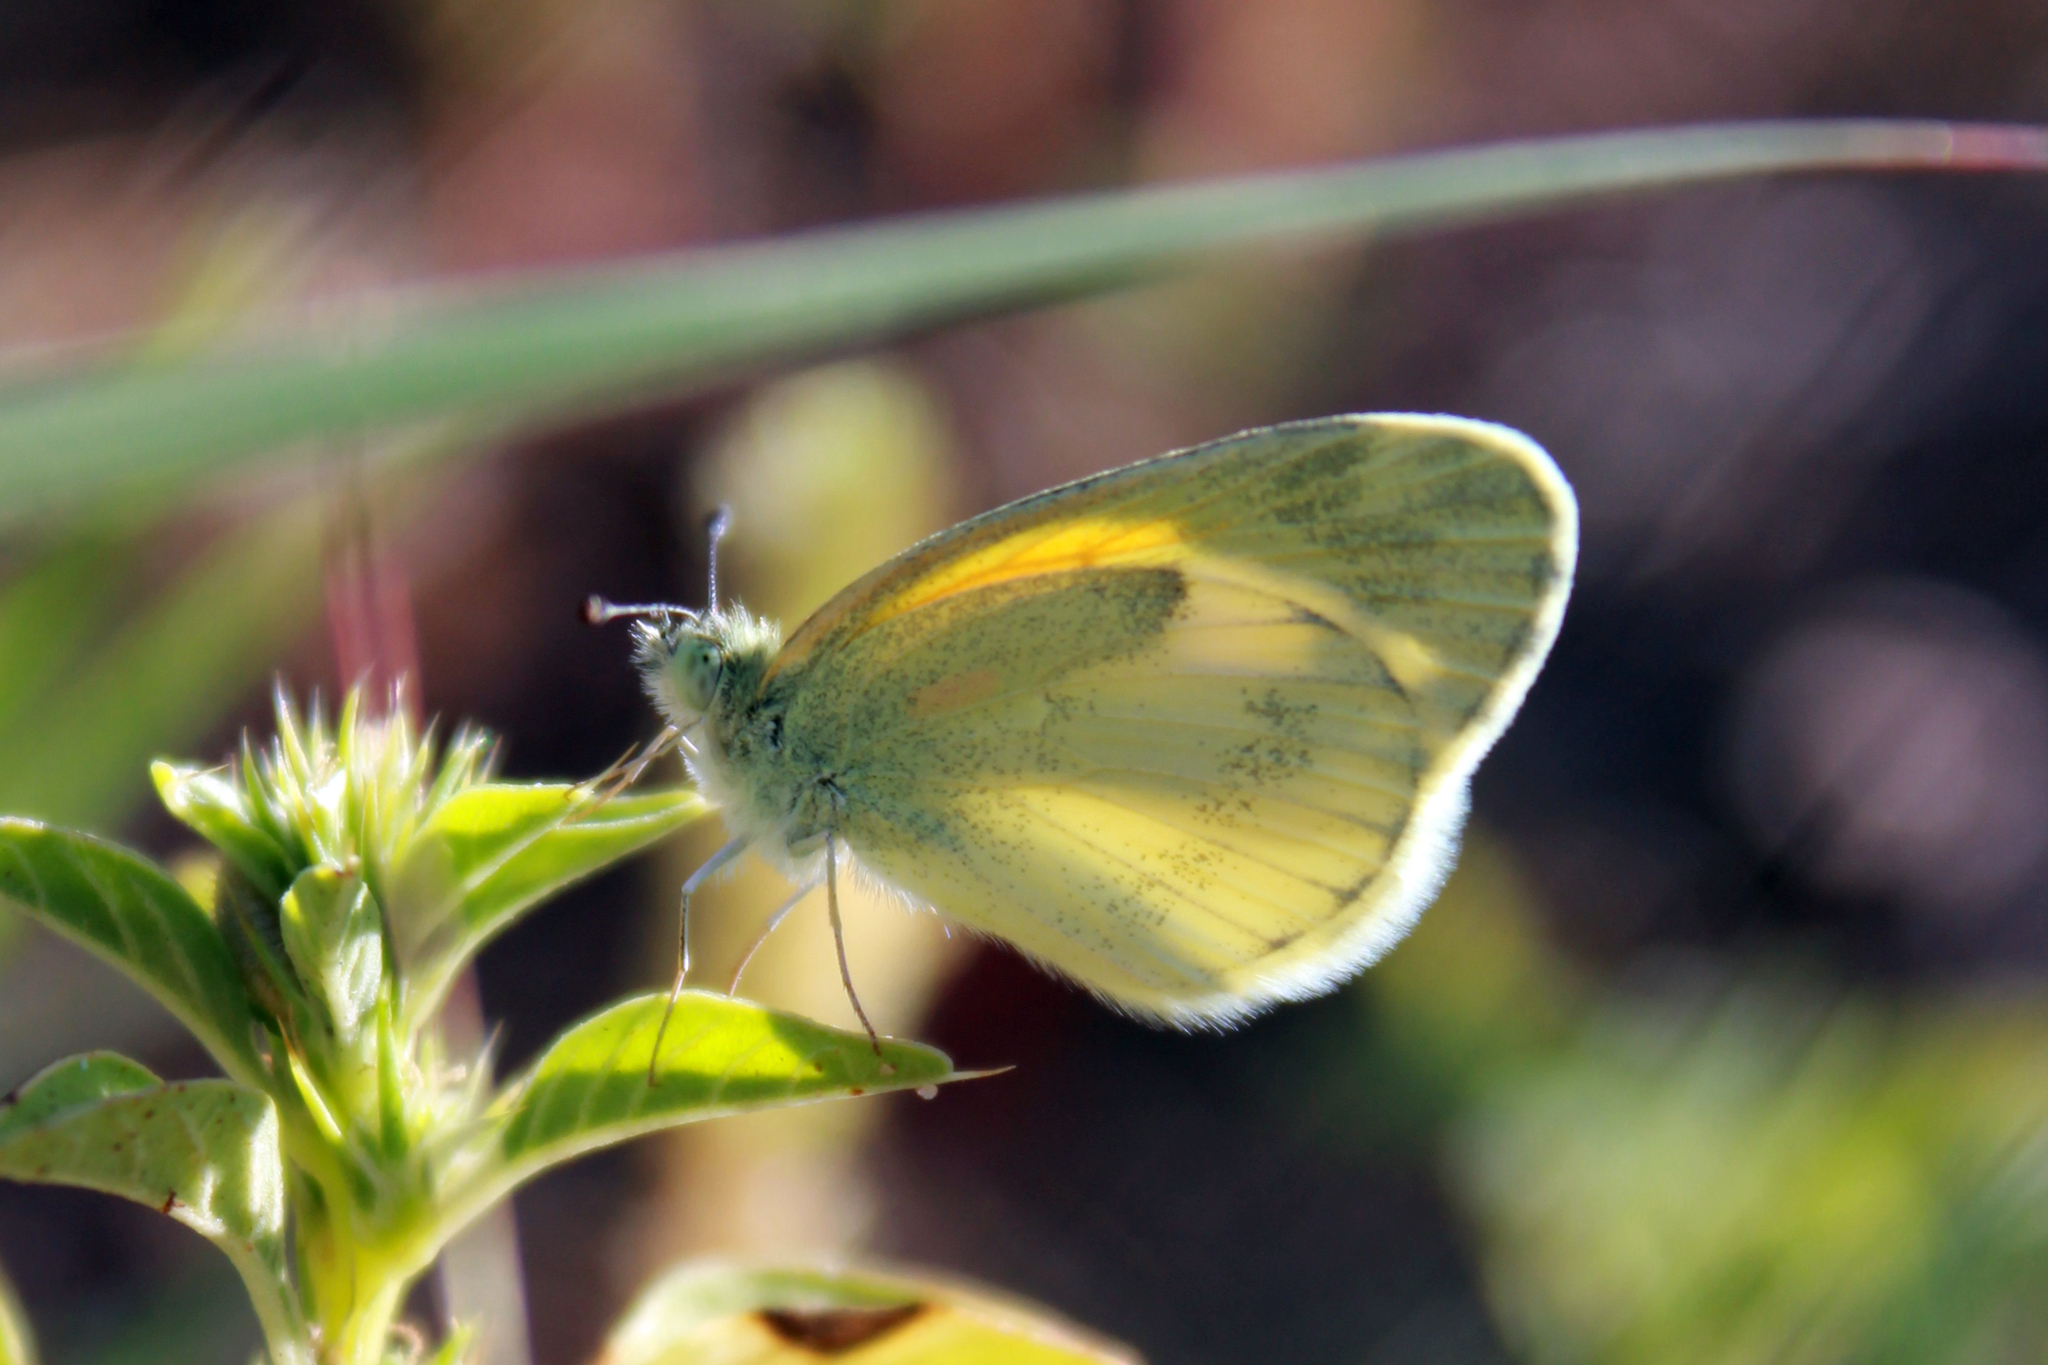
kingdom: Animalia
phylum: Arthropoda
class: Insecta
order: Lepidoptera
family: Pieridae
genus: Nathalis
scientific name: Nathalis iole
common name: Dainty sulphur
